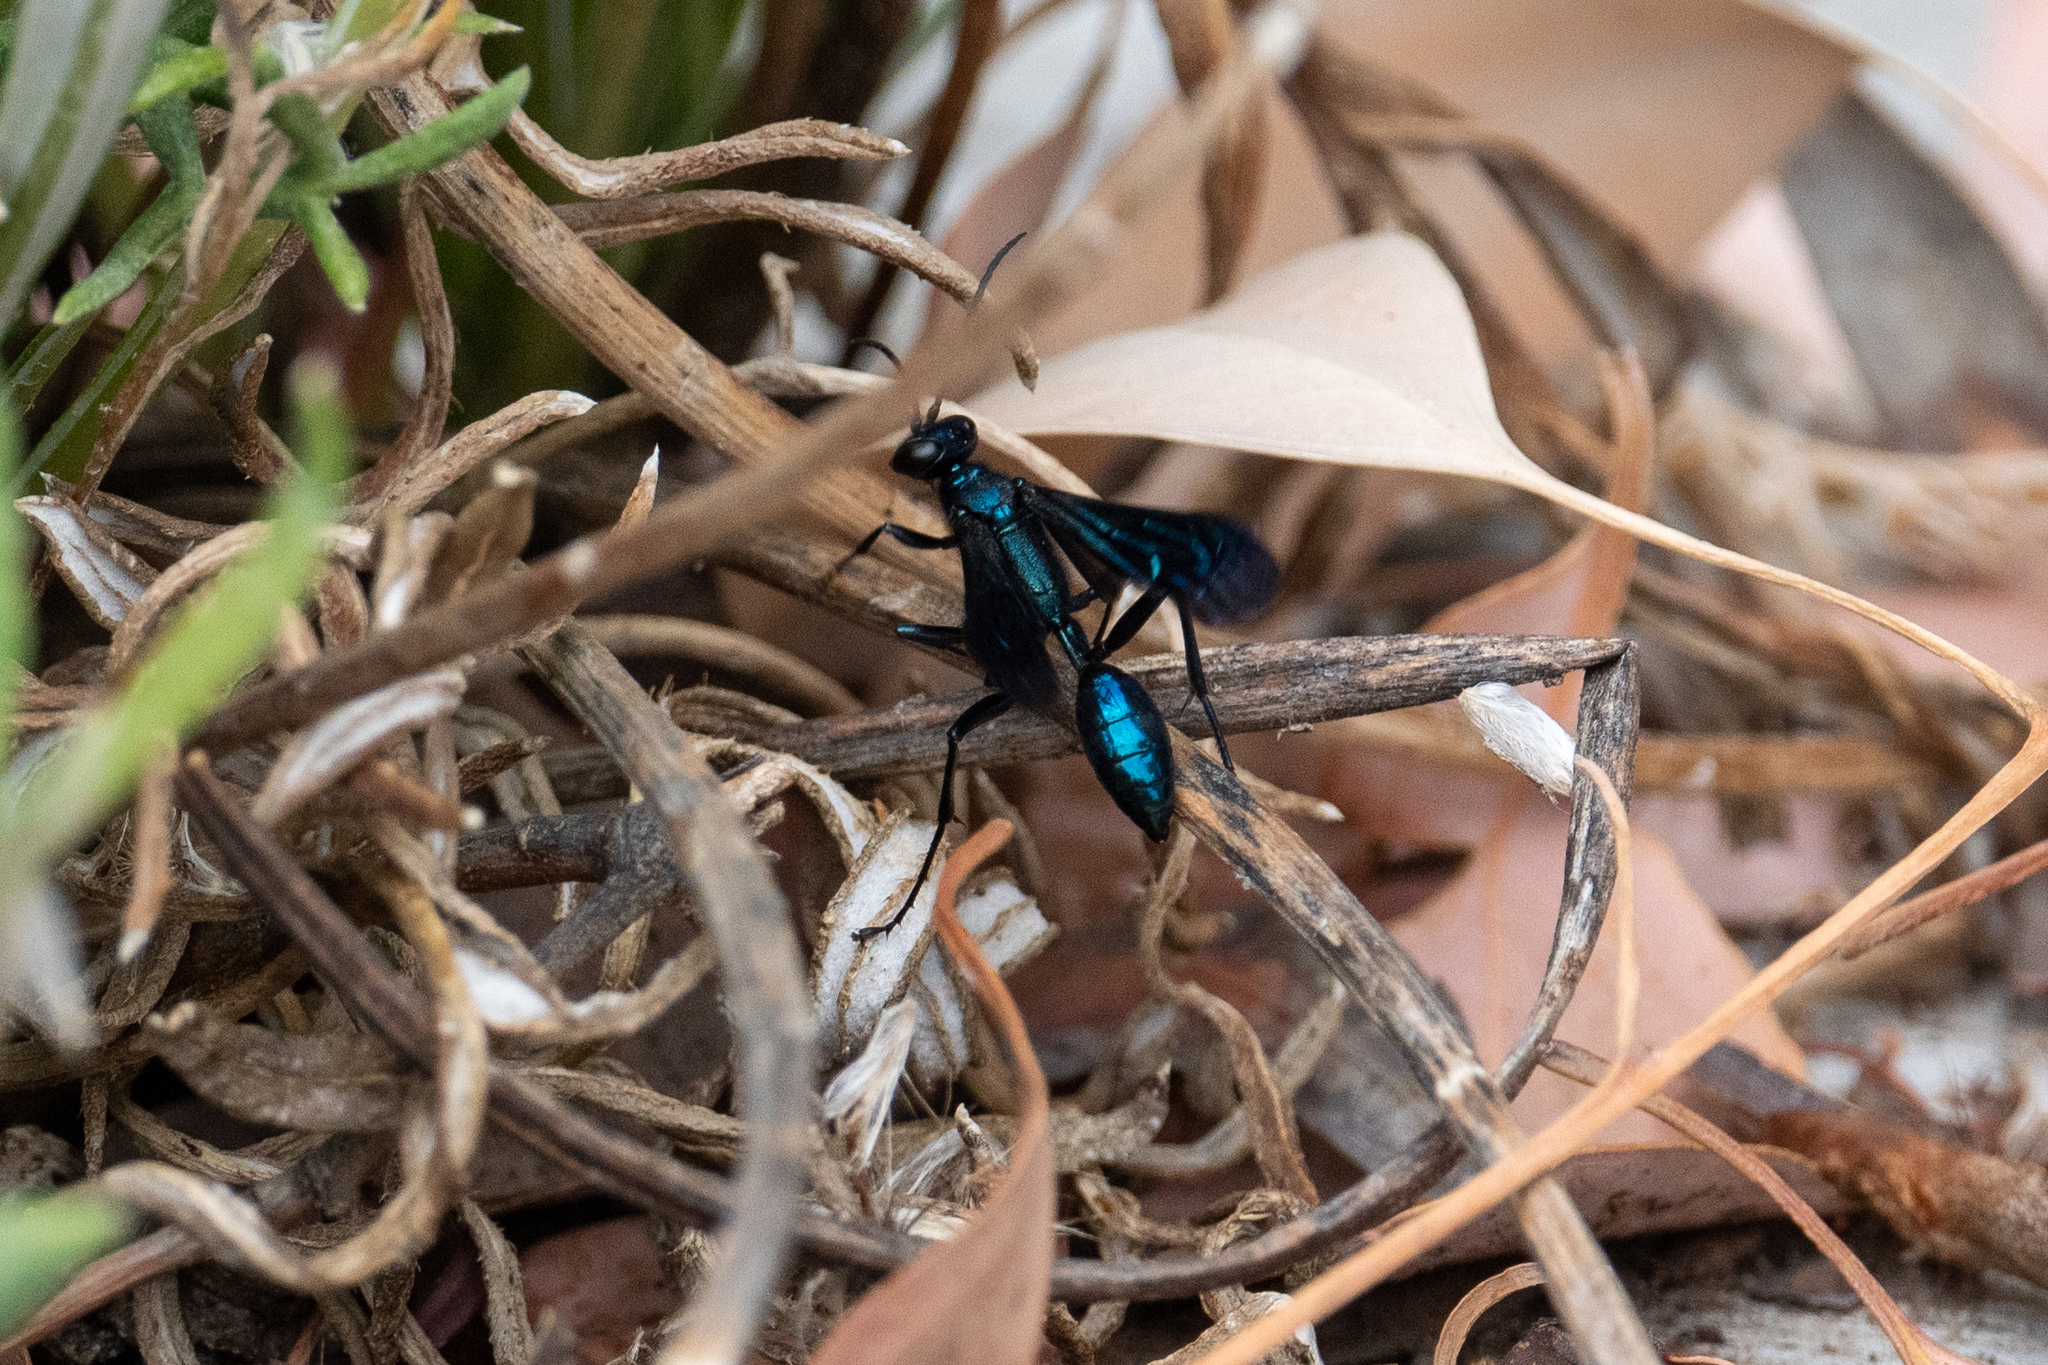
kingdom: Animalia
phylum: Arthropoda
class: Insecta
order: Hymenoptera
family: Sphecidae
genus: Chalybion
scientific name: Chalybion californicum
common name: Mud dauber
